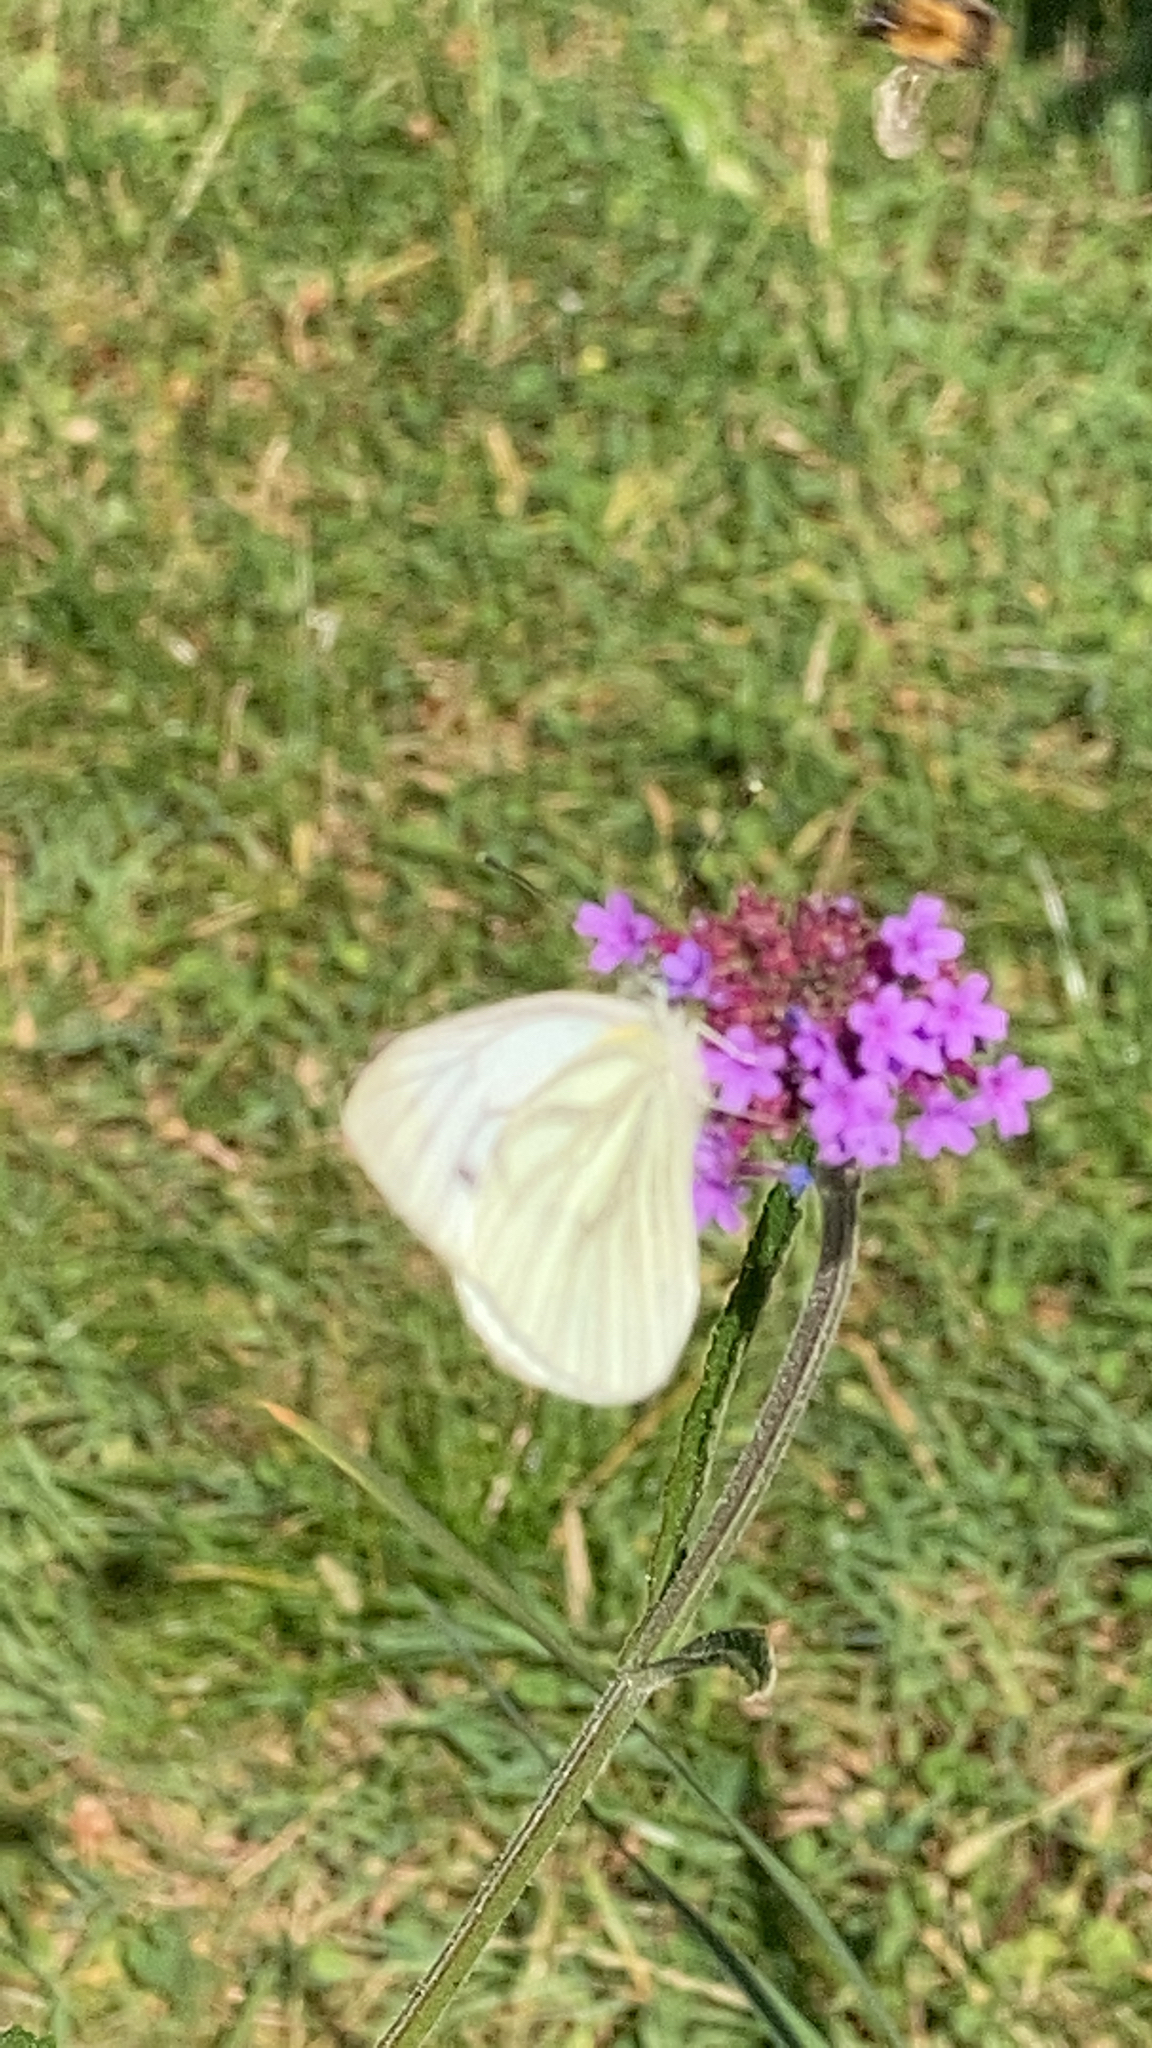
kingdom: Animalia
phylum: Arthropoda
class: Insecta
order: Lepidoptera
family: Pieridae
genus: Pieris
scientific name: Pieris napi
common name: Green-veined white
